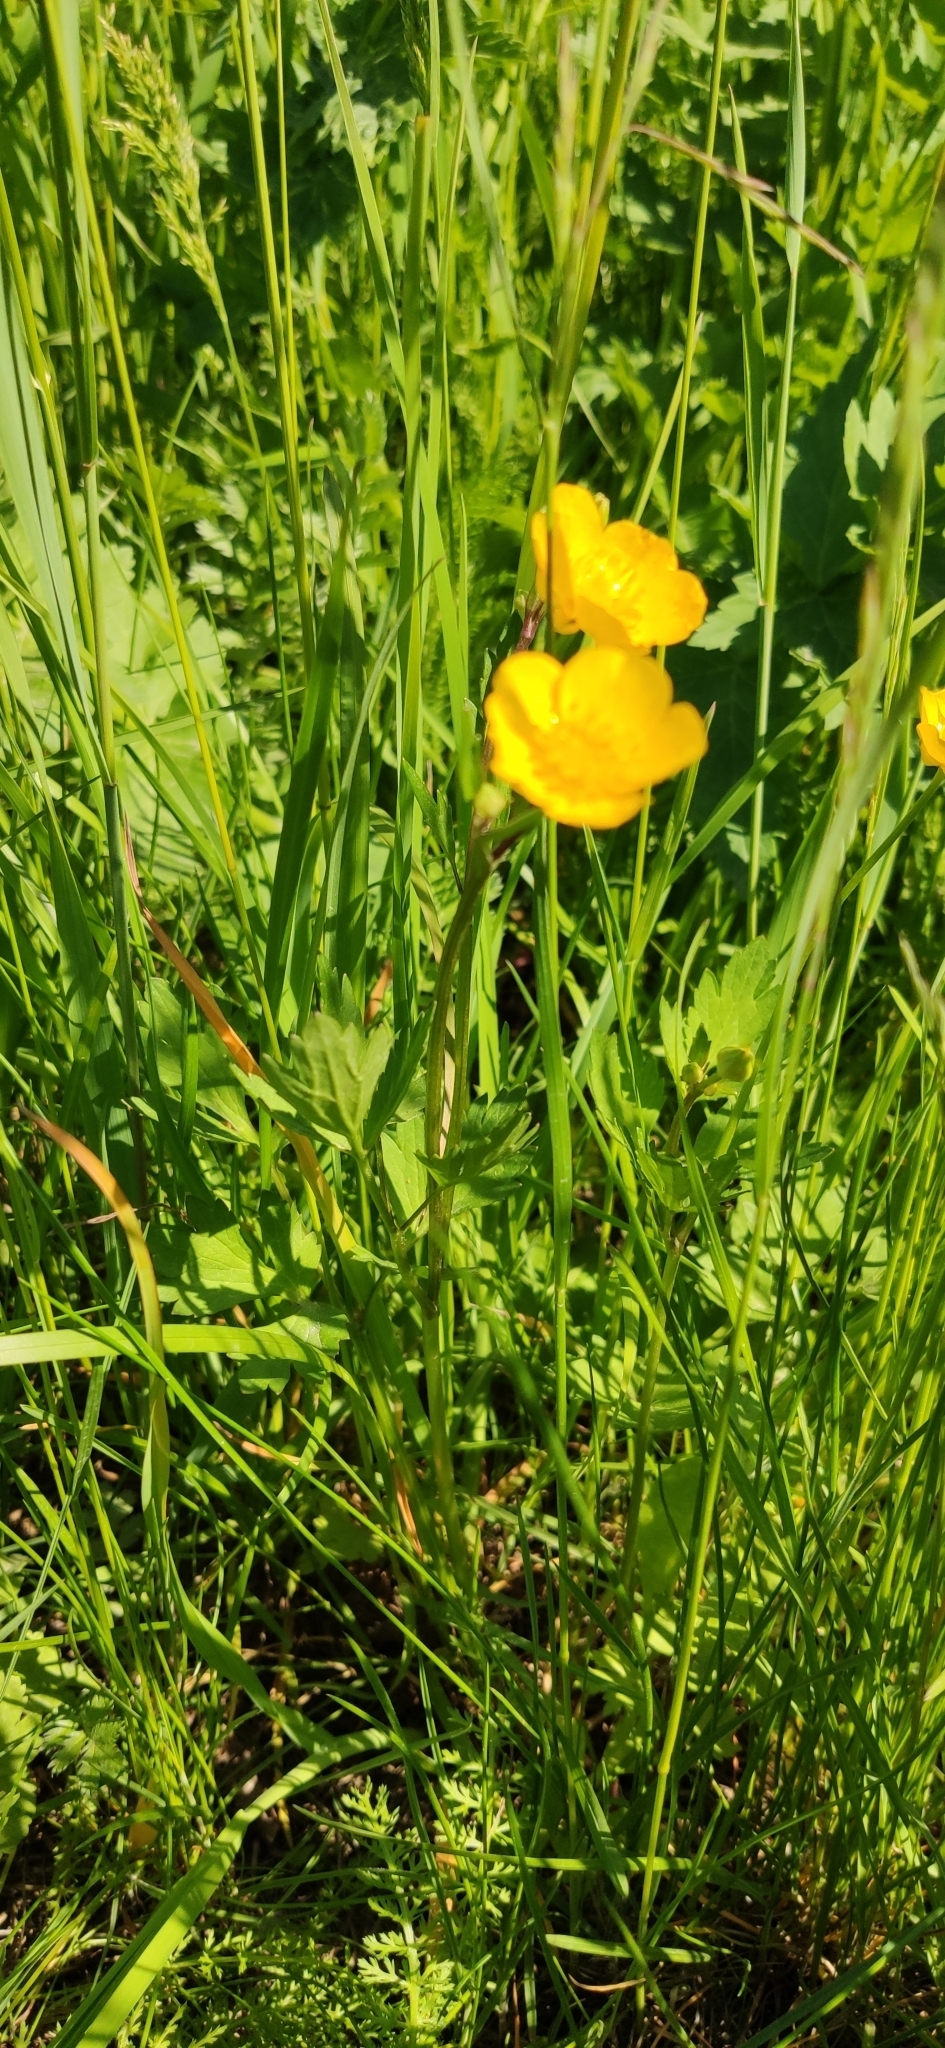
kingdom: Plantae
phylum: Tracheophyta
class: Magnoliopsida
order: Ranunculales
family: Ranunculaceae
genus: Ranunculus
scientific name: Ranunculus repens
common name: Creeping buttercup
